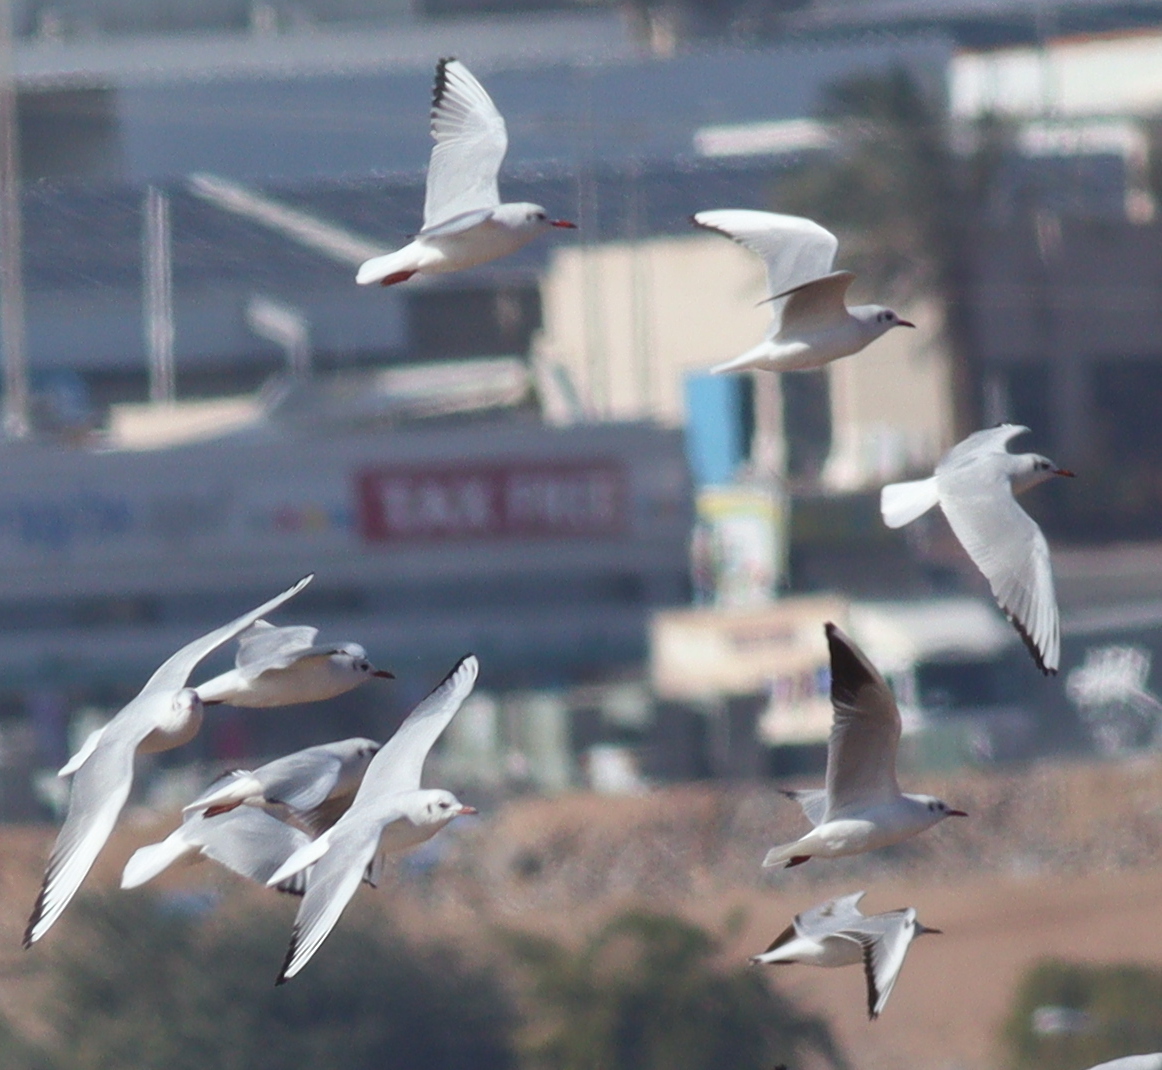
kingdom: Animalia
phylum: Chordata
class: Aves
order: Charadriiformes
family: Laridae
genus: Chroicocephalus
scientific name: Chroicocephalus ridibundus
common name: Black-headed gull
